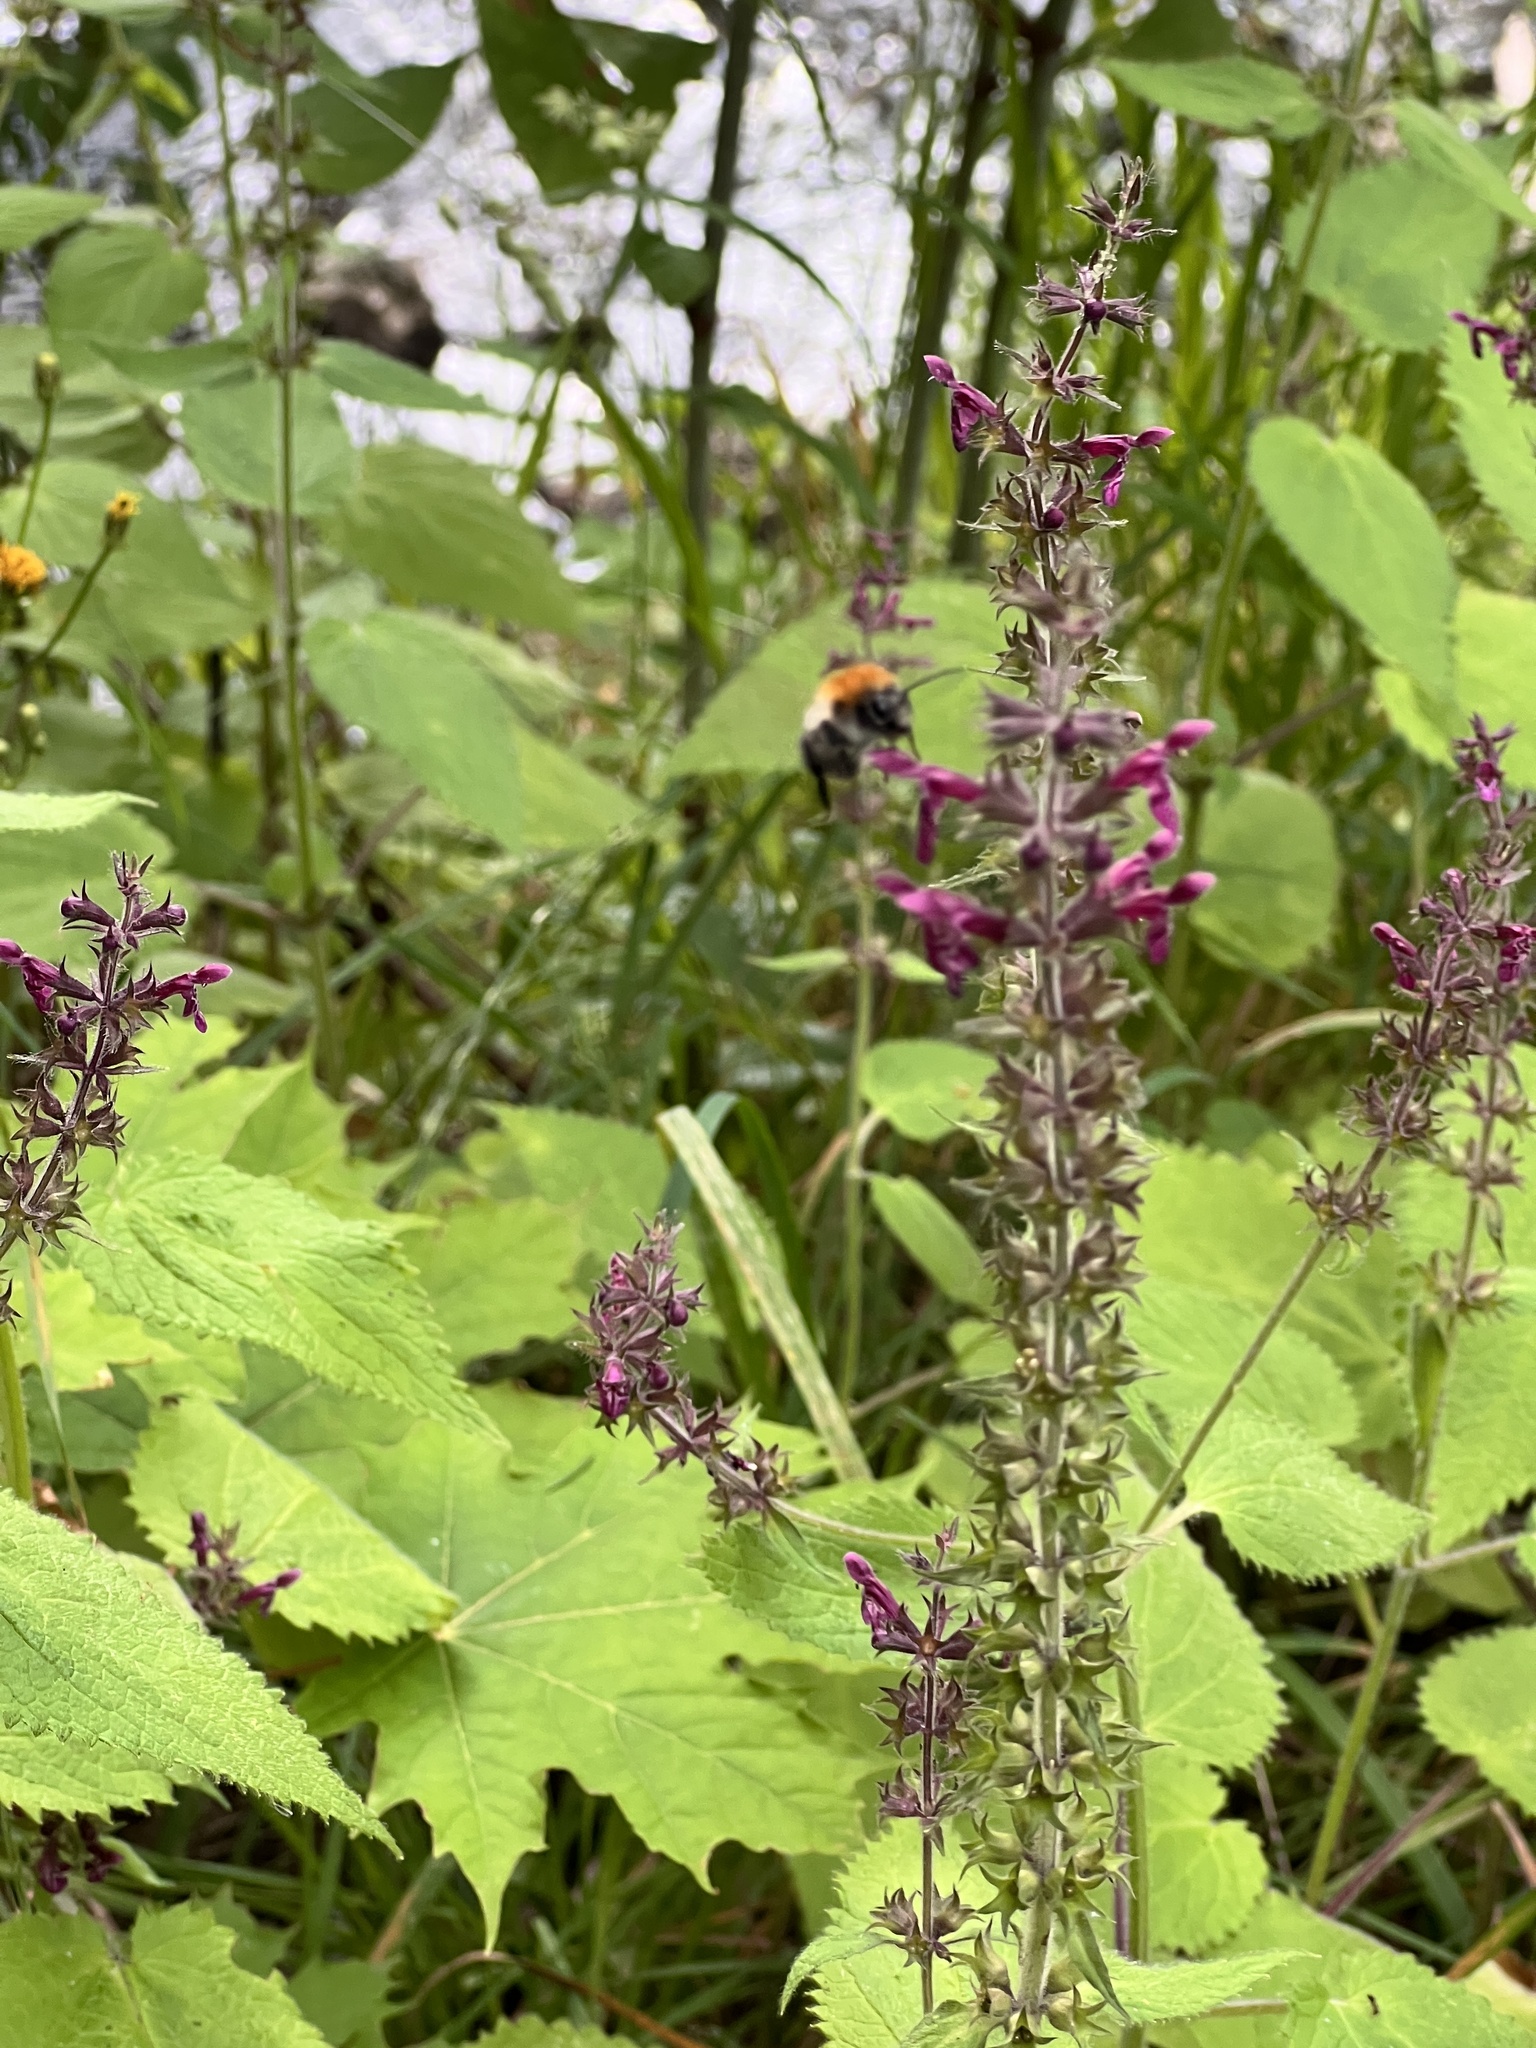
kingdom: Plantae
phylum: Tracheophyta
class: Magnoliopsida
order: Lamiales
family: Lamiaceae
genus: Stachys
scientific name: Stachys sylvatica
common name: Hedge woundwort
